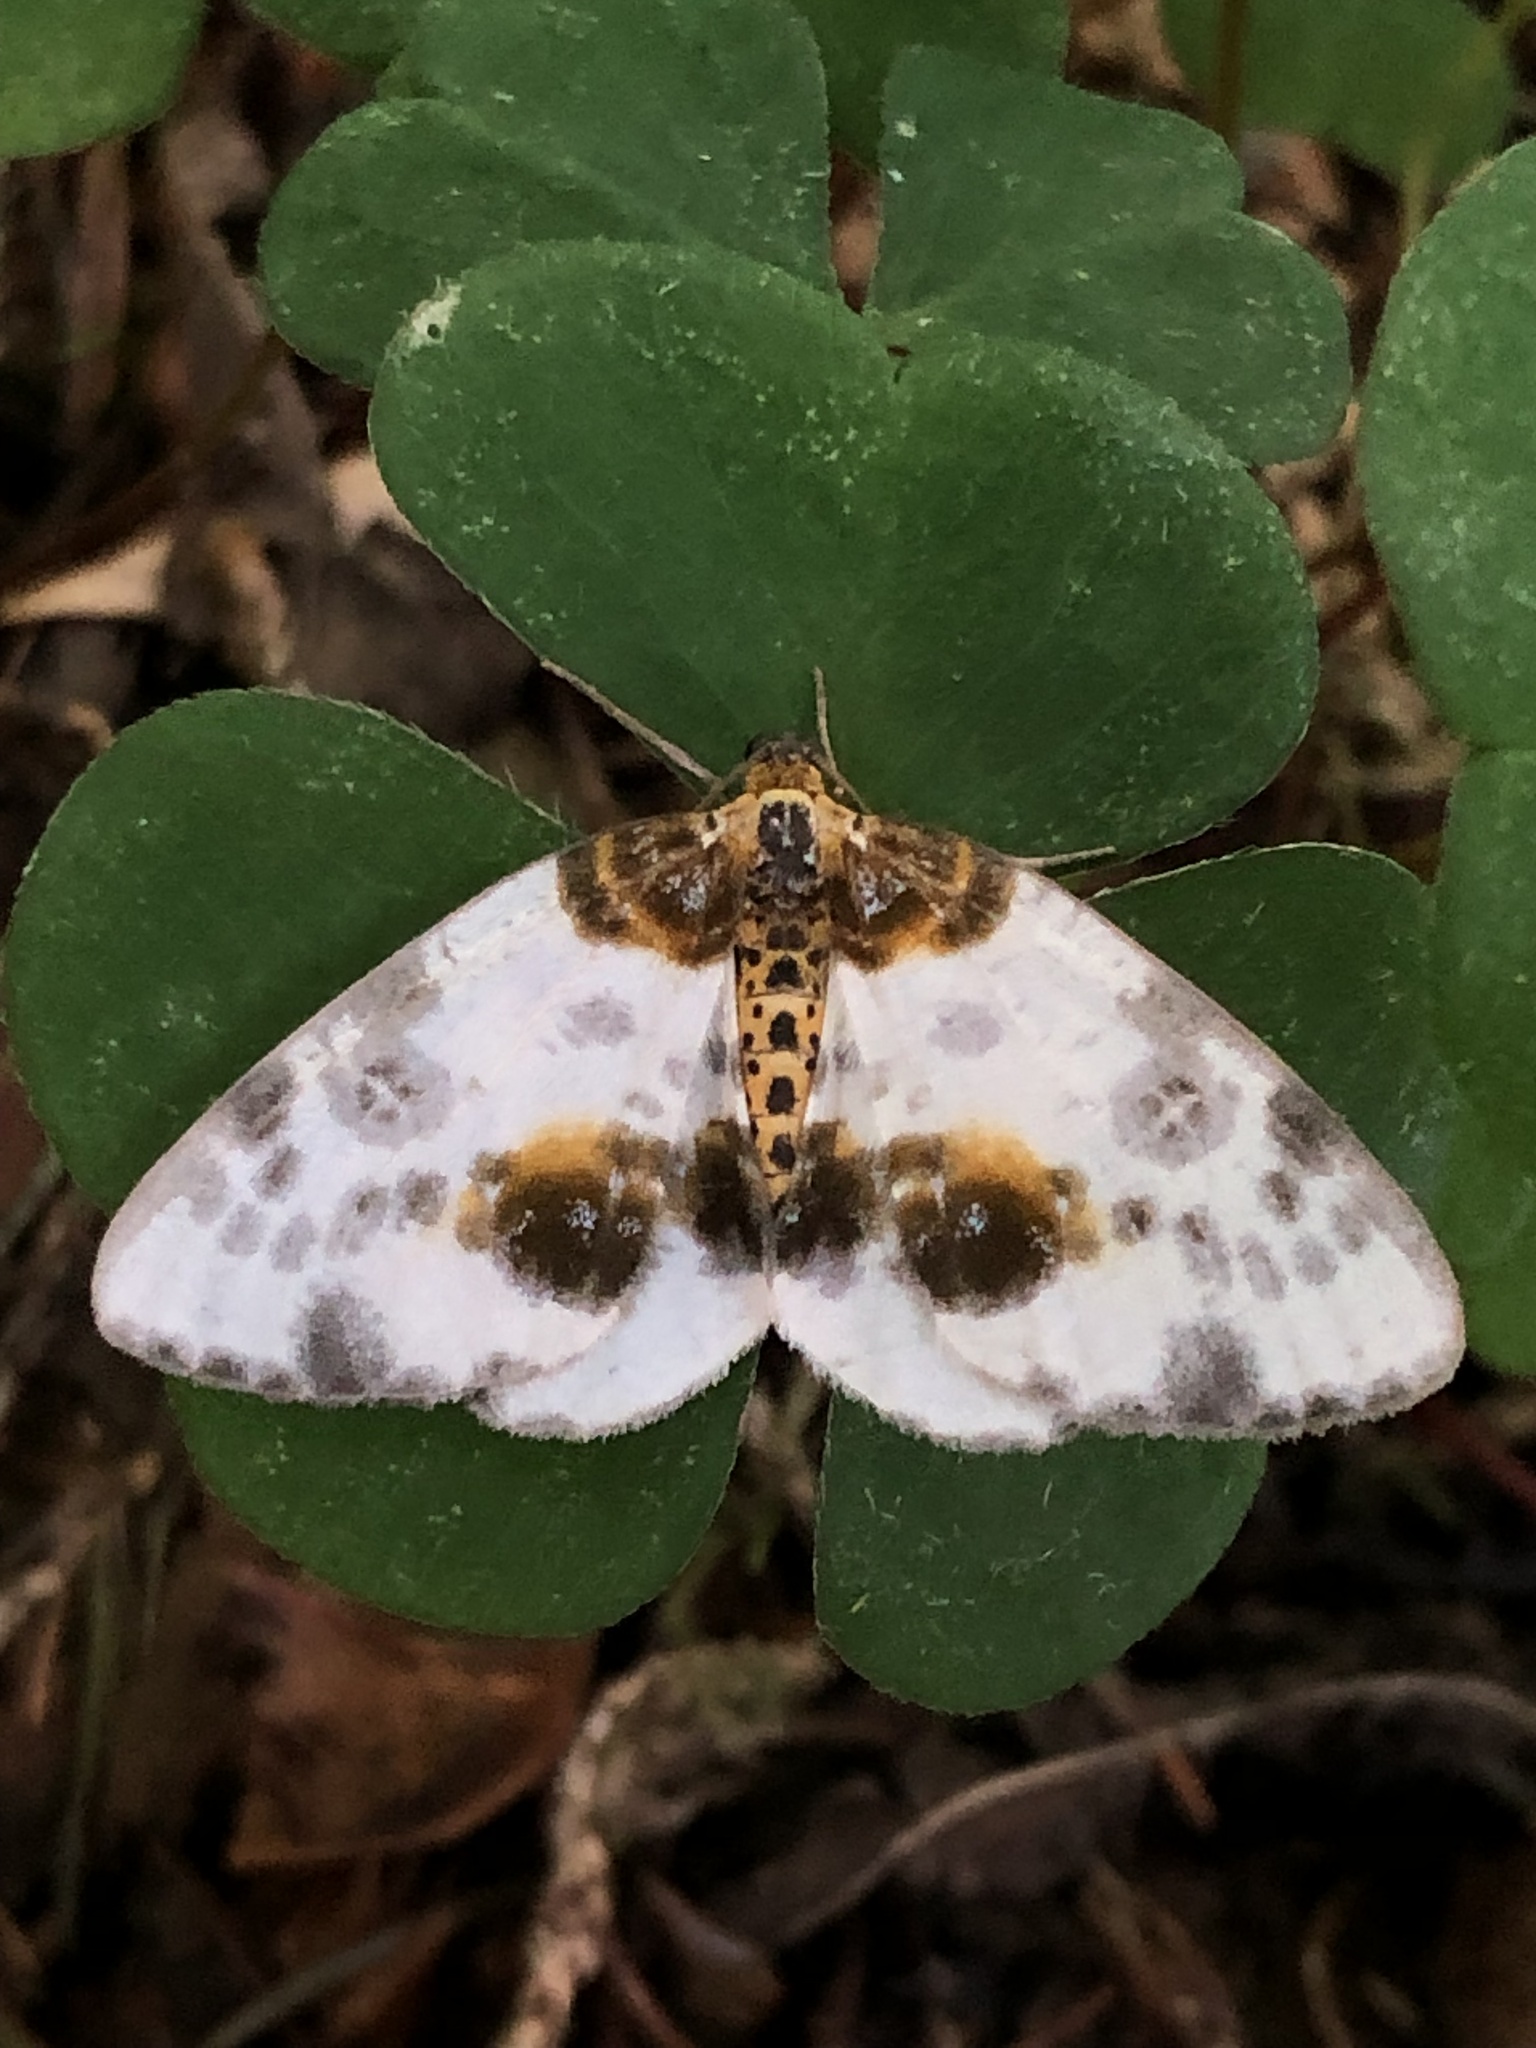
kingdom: Animalia
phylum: Arthropoda
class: Insecta
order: Lepidoptera
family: Geometridae
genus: Abraxas
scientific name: Abraxas sylvata
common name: Clouded magpie
